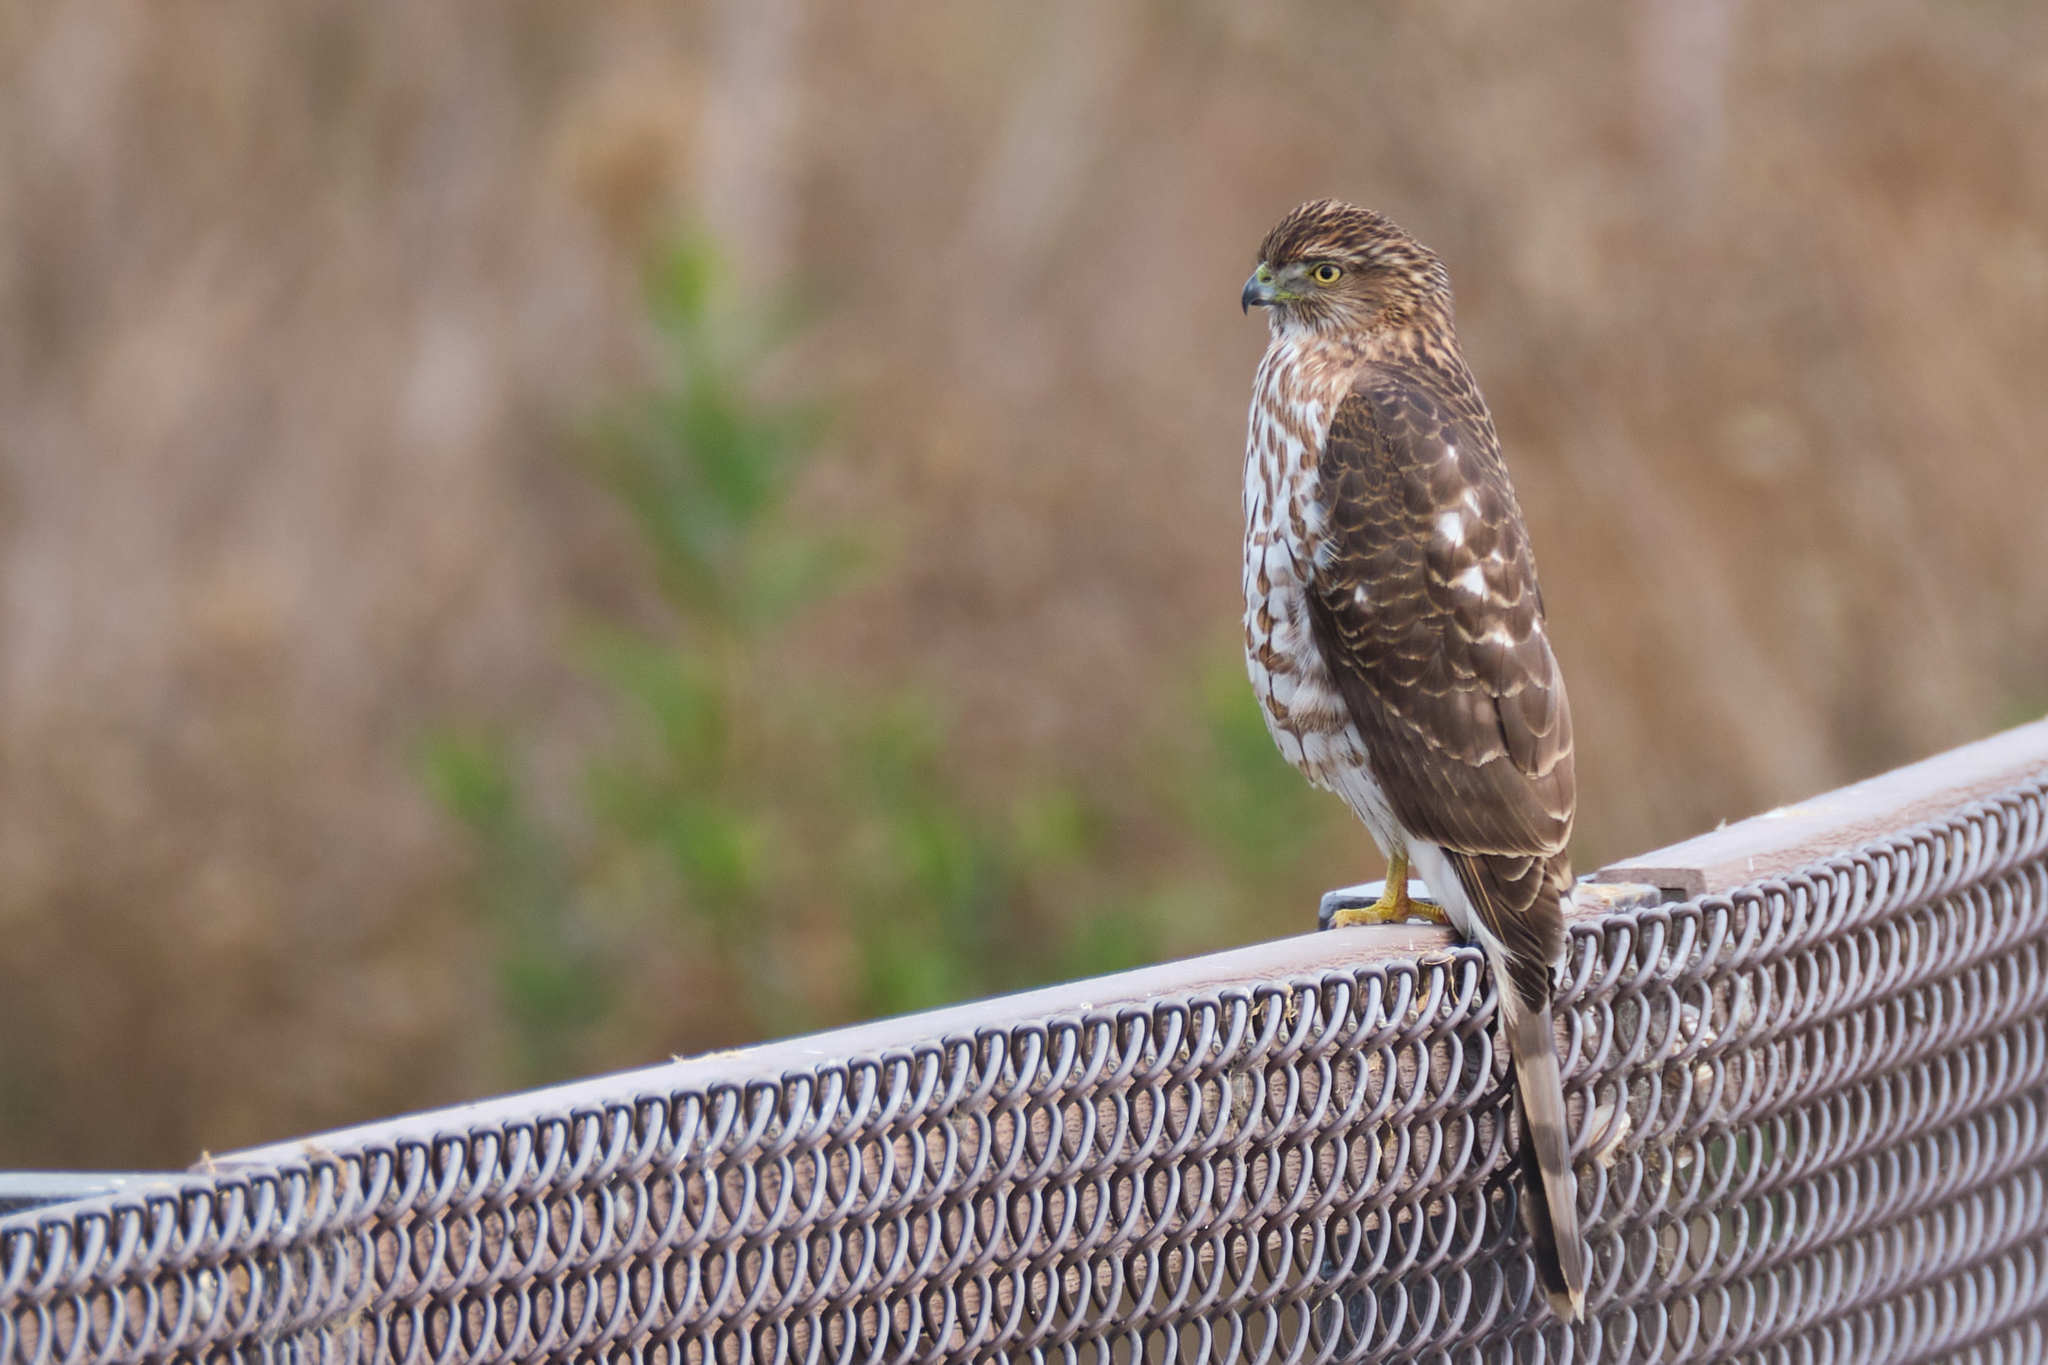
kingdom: Animalia
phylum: Chordata
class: Aves
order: Accipitriformes
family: Accipitridae
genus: Accipiter
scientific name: Accipiter cooperii
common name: Cooper's hawk
